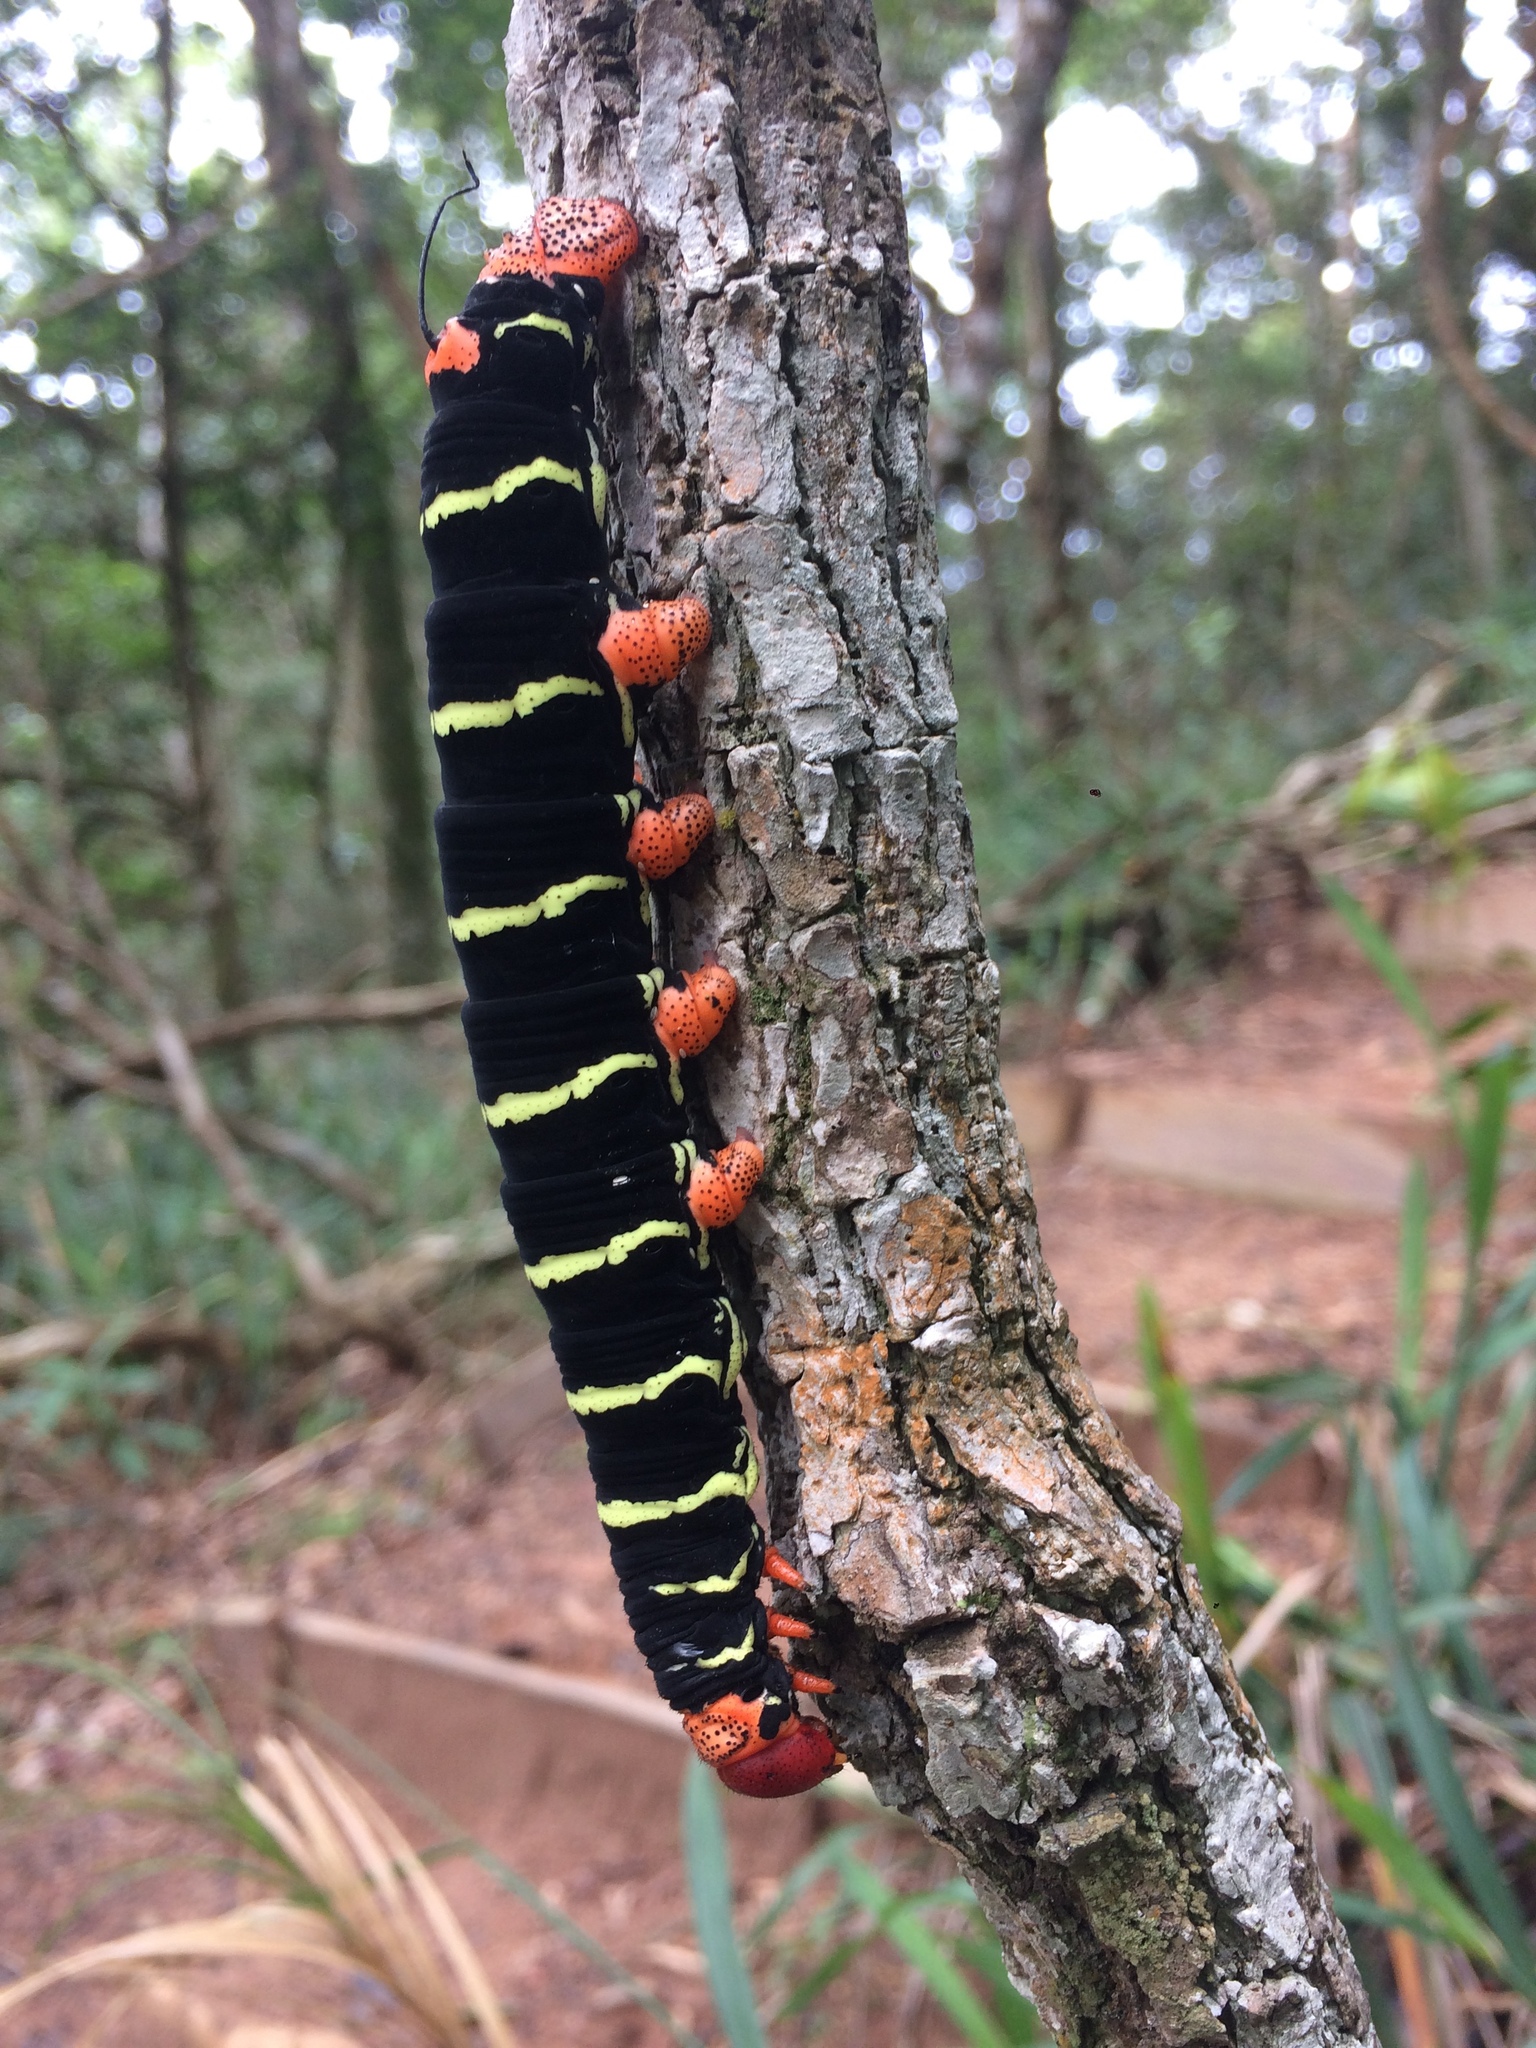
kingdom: Animalia
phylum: Arthropoda
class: Insecta
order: Lepidoptera
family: Sphingidae
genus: Pseudosphinx
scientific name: Pseudosphinx tetrio
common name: Tetrio sphinx
